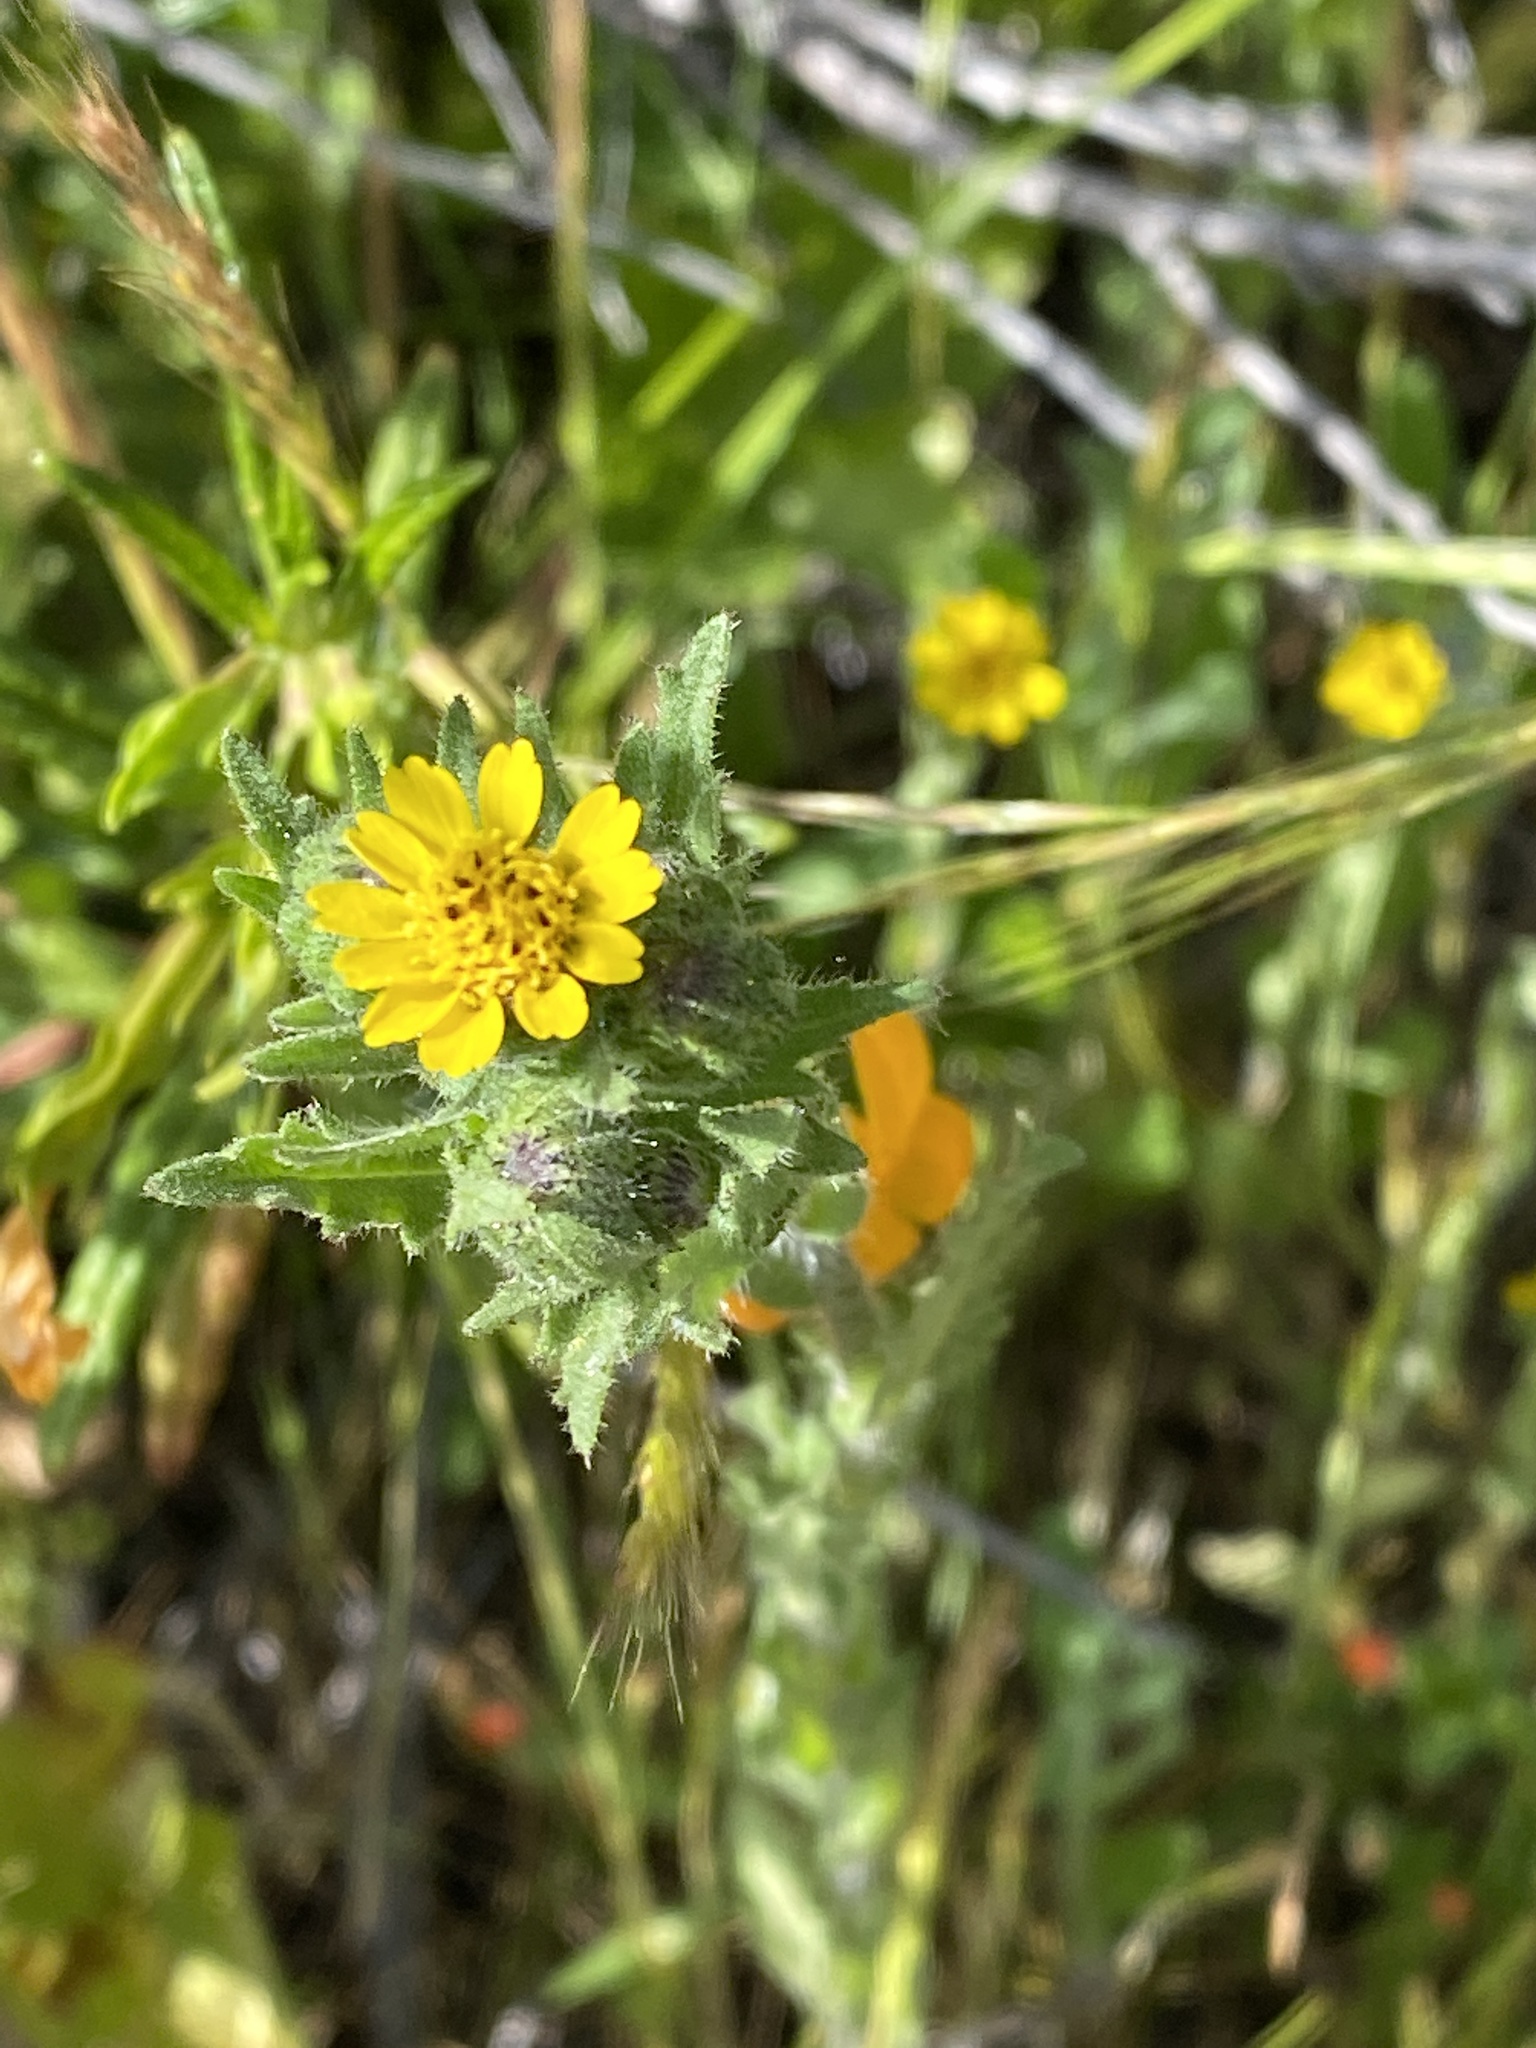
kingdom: Plantae
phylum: Tracheophyta
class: Magnoliopsida
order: Asterales
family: Asteraceae
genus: Layia
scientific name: Layia hieracioides
